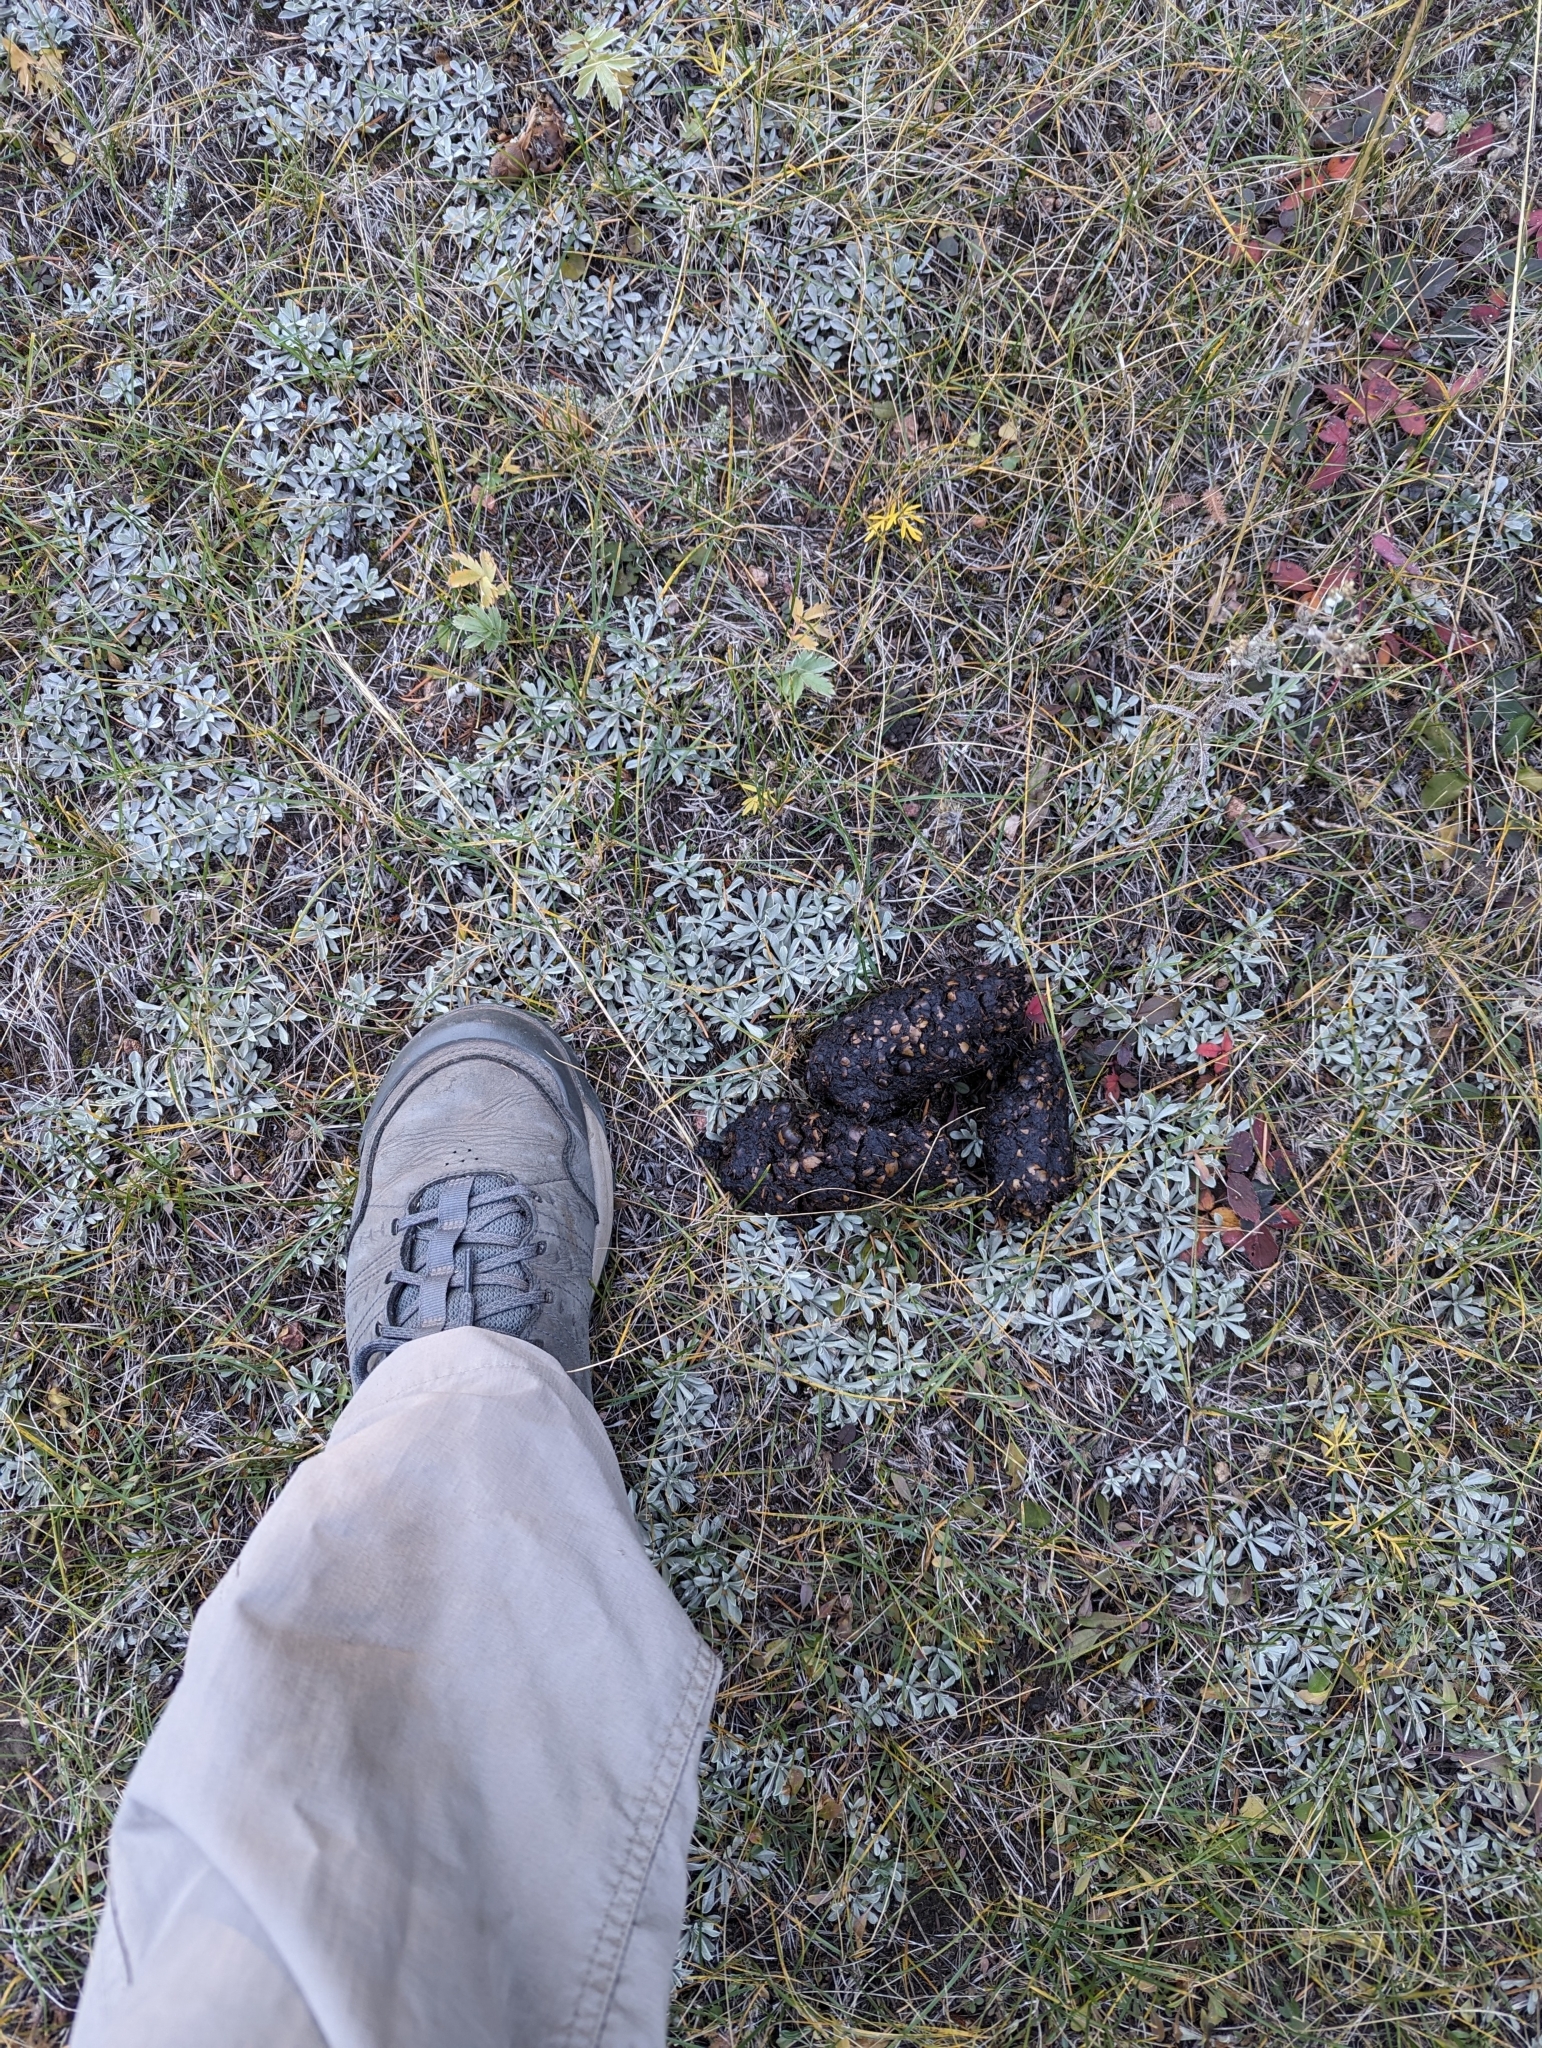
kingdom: Animalia
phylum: Chordata
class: Mammalia
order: Carnivora
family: Ursidae
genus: Ursus
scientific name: Ursus americanus
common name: American black bear
